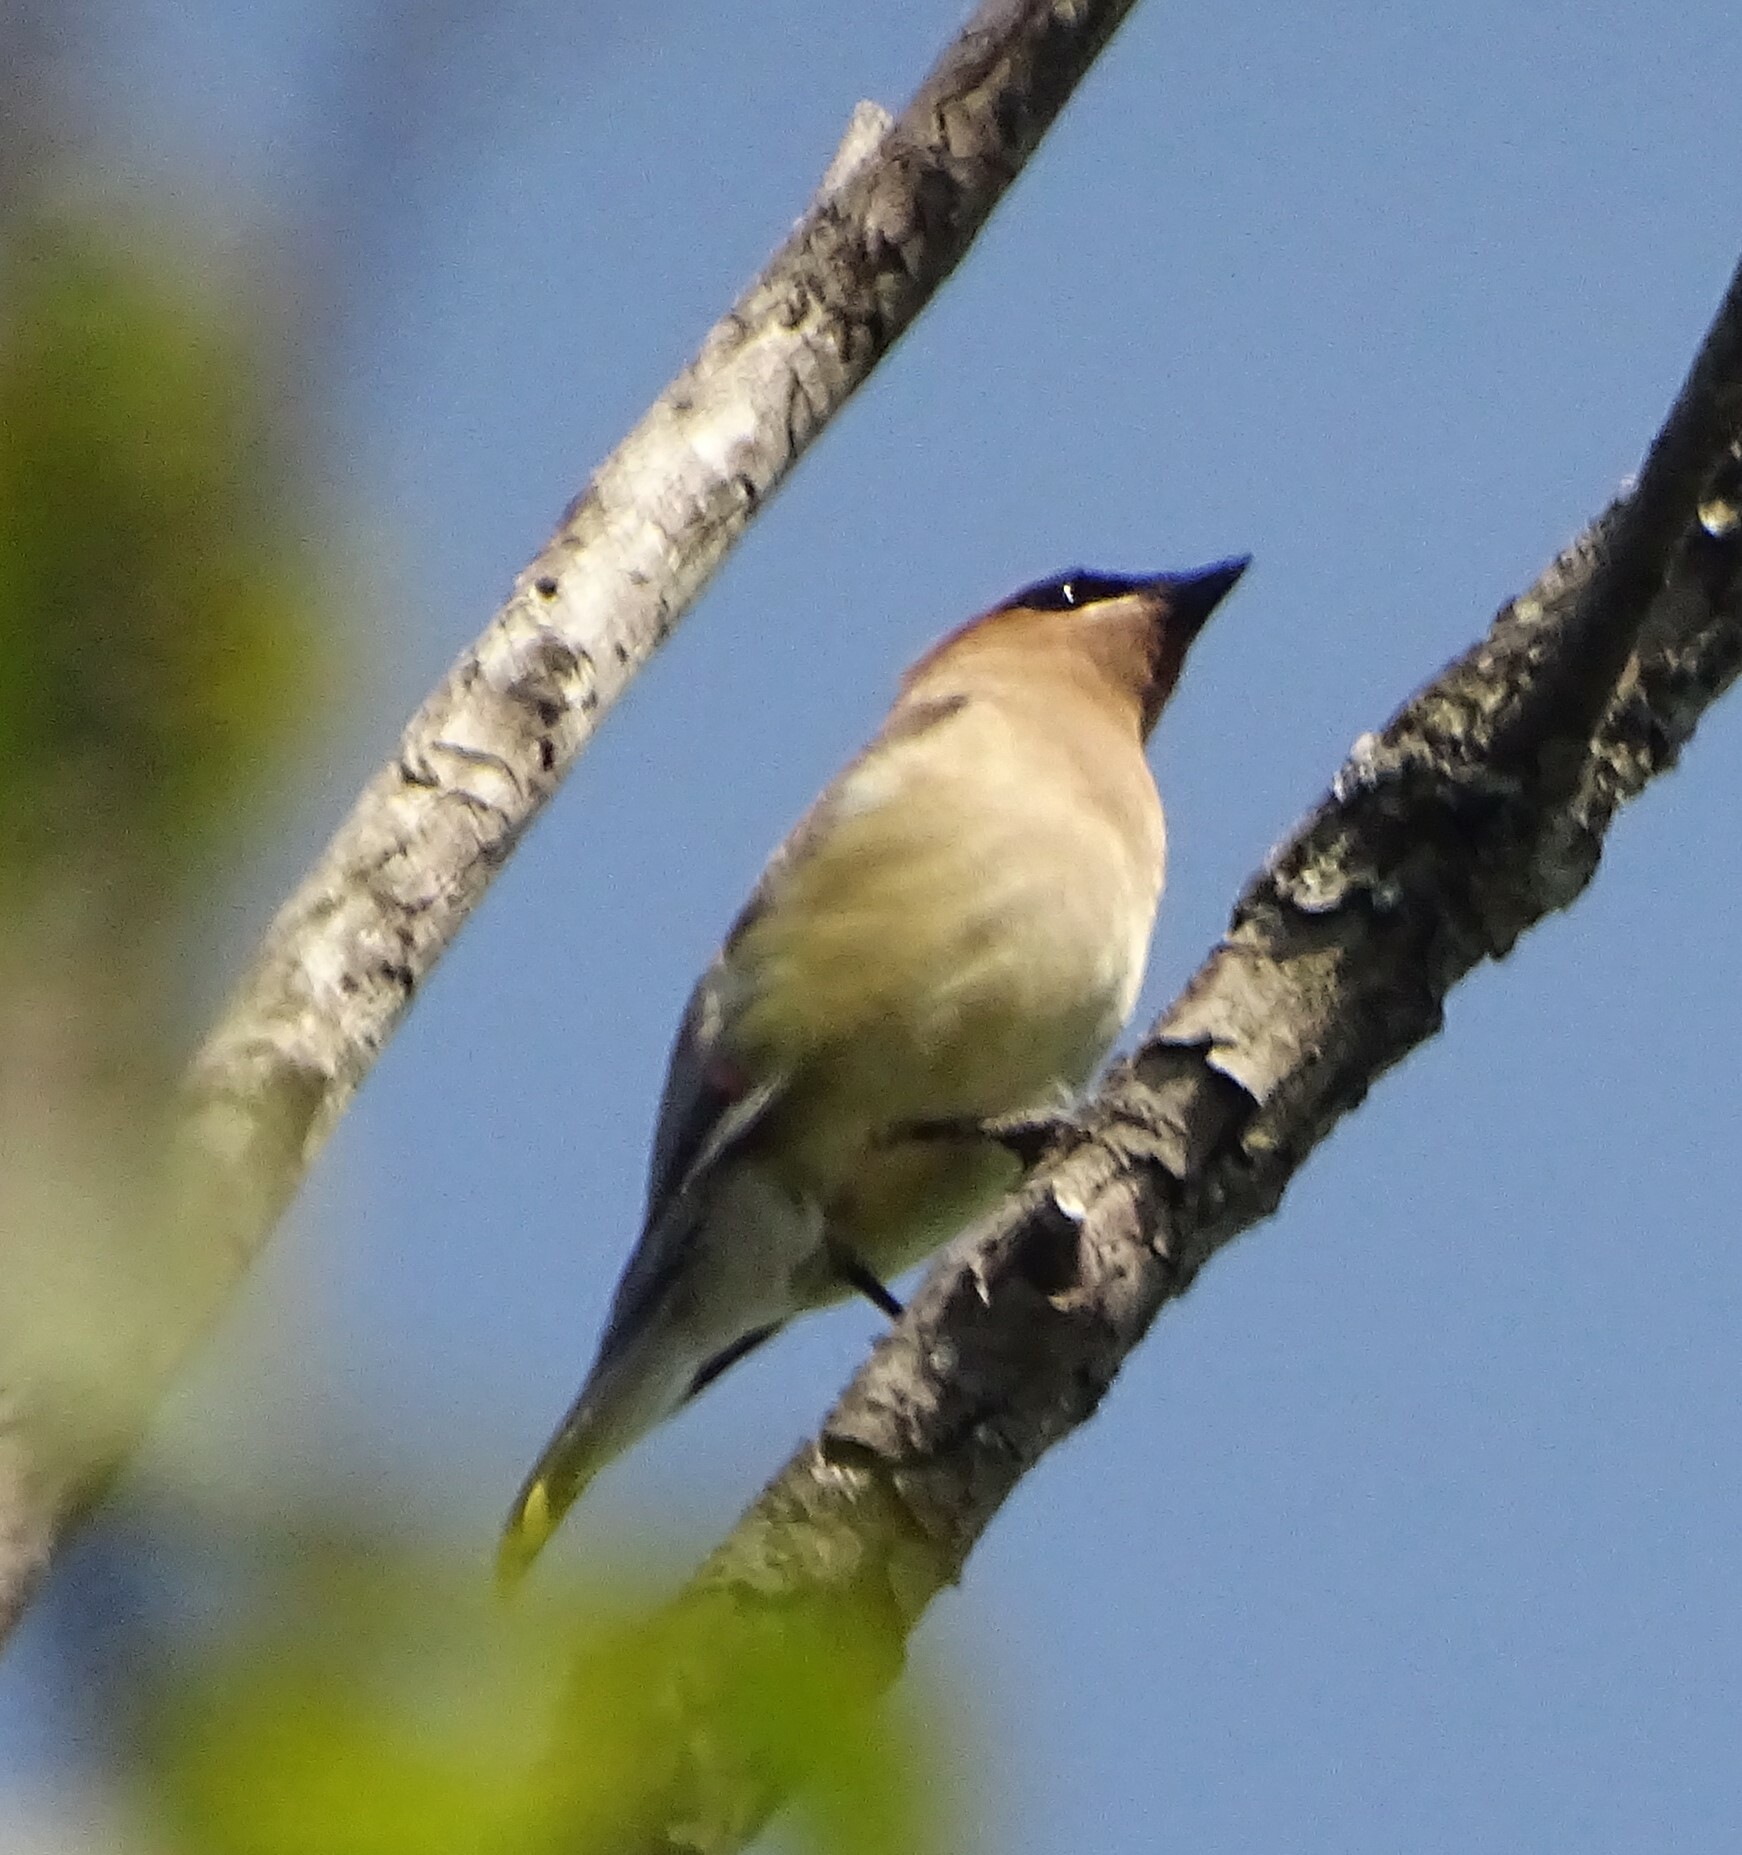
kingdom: Animalia
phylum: Chordata
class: Aves
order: Passeriformes
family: Bombycillidae
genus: Bombycilla
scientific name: Bombycilla cedrorum
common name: Cedar waxwing
